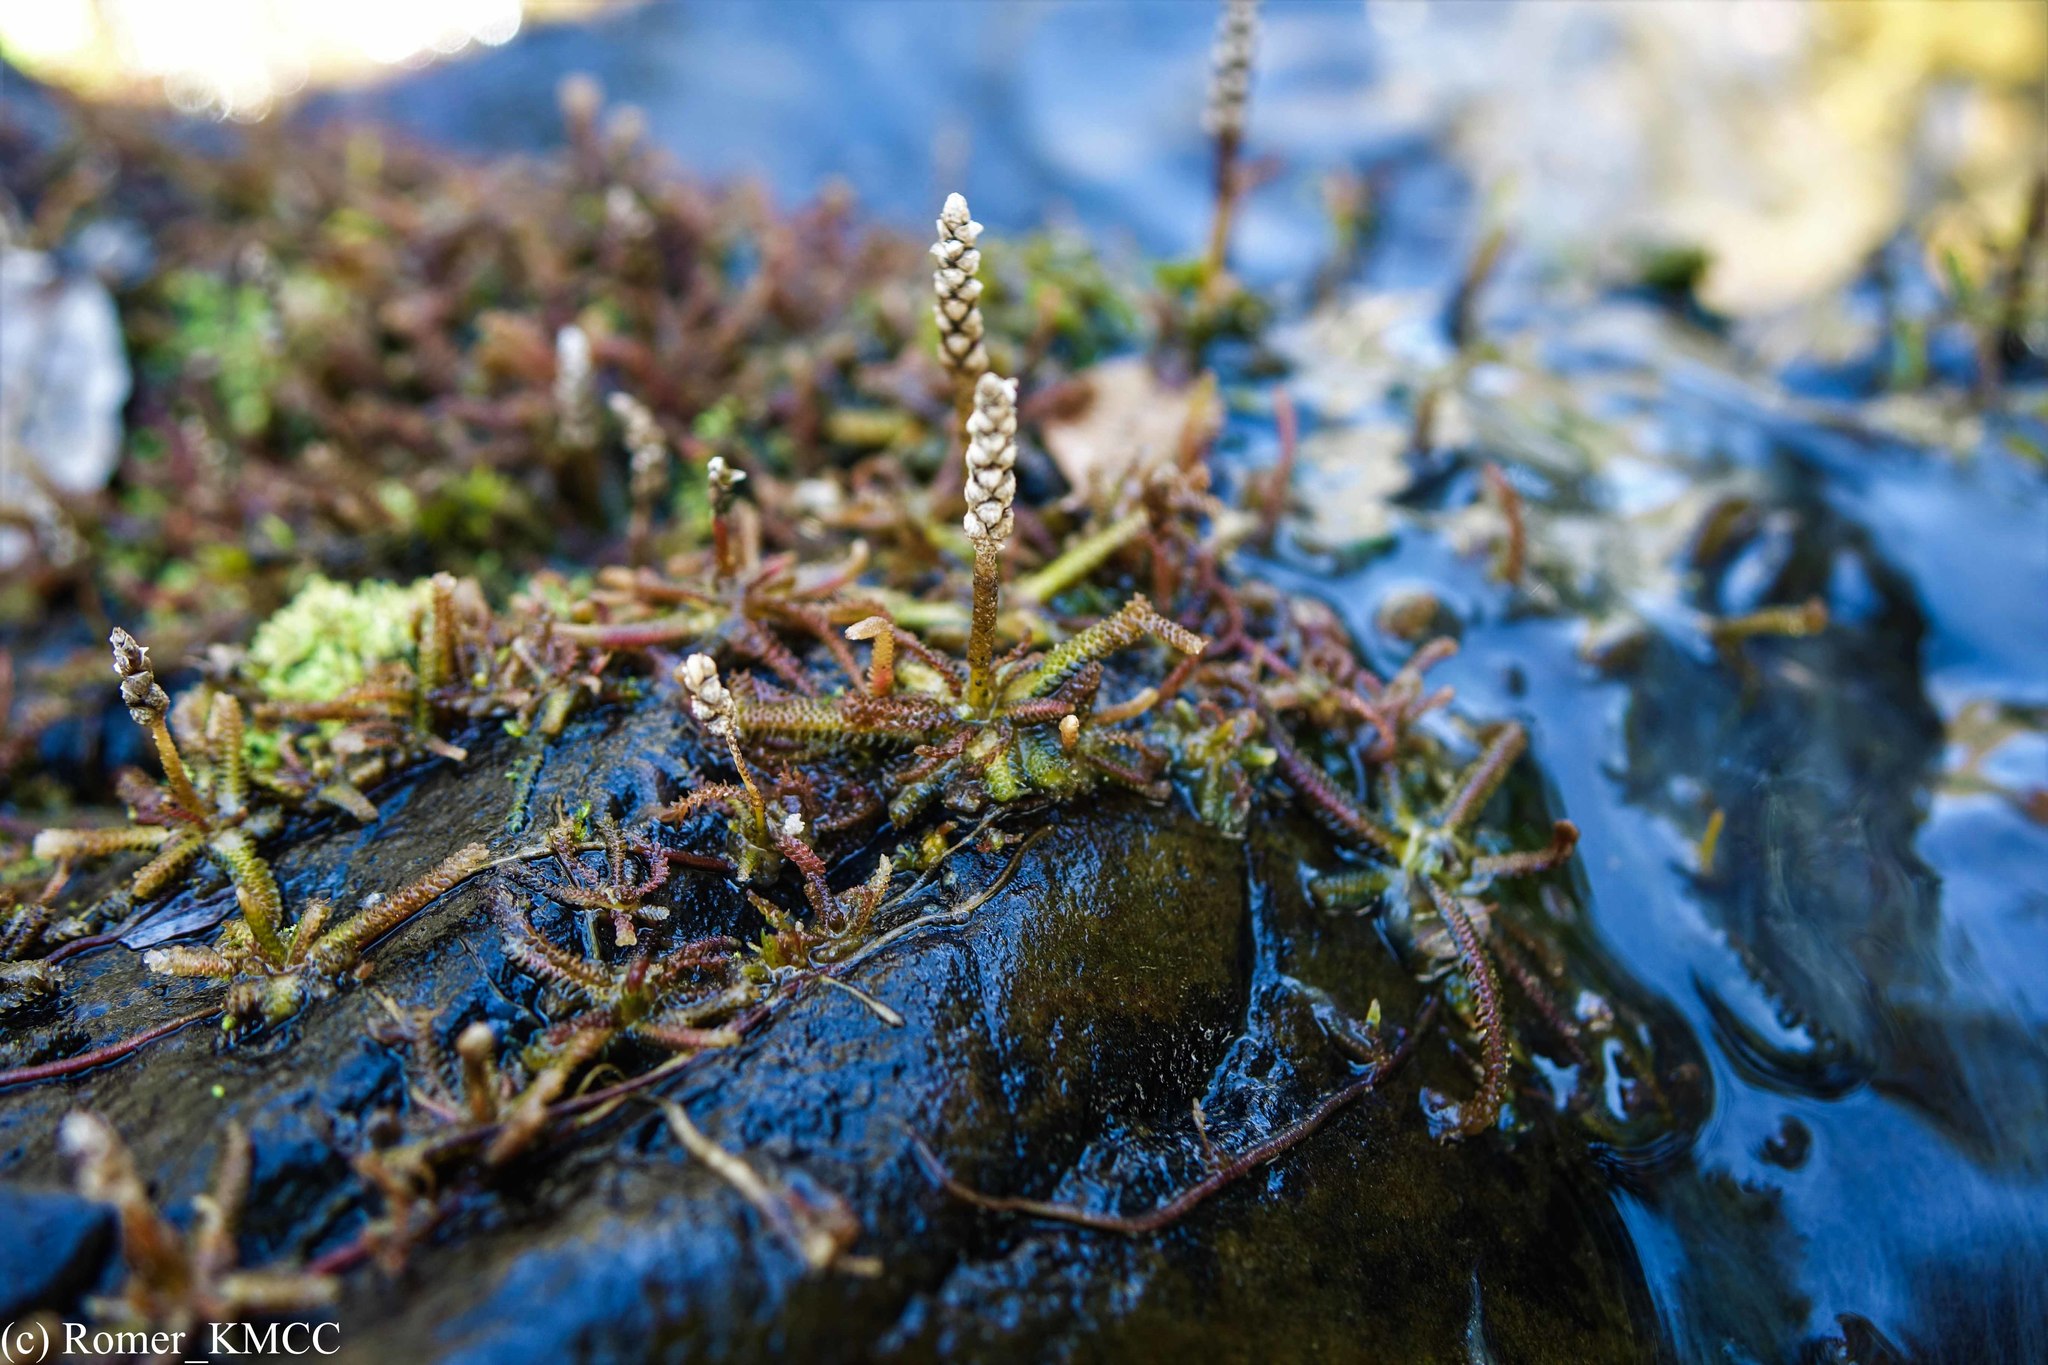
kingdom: Plantae
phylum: Tracheophyta
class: Magnoliopsida
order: Cornales
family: Hydrostachyaceae
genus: Hydrostachys
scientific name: Hydrostachys verruculosa
